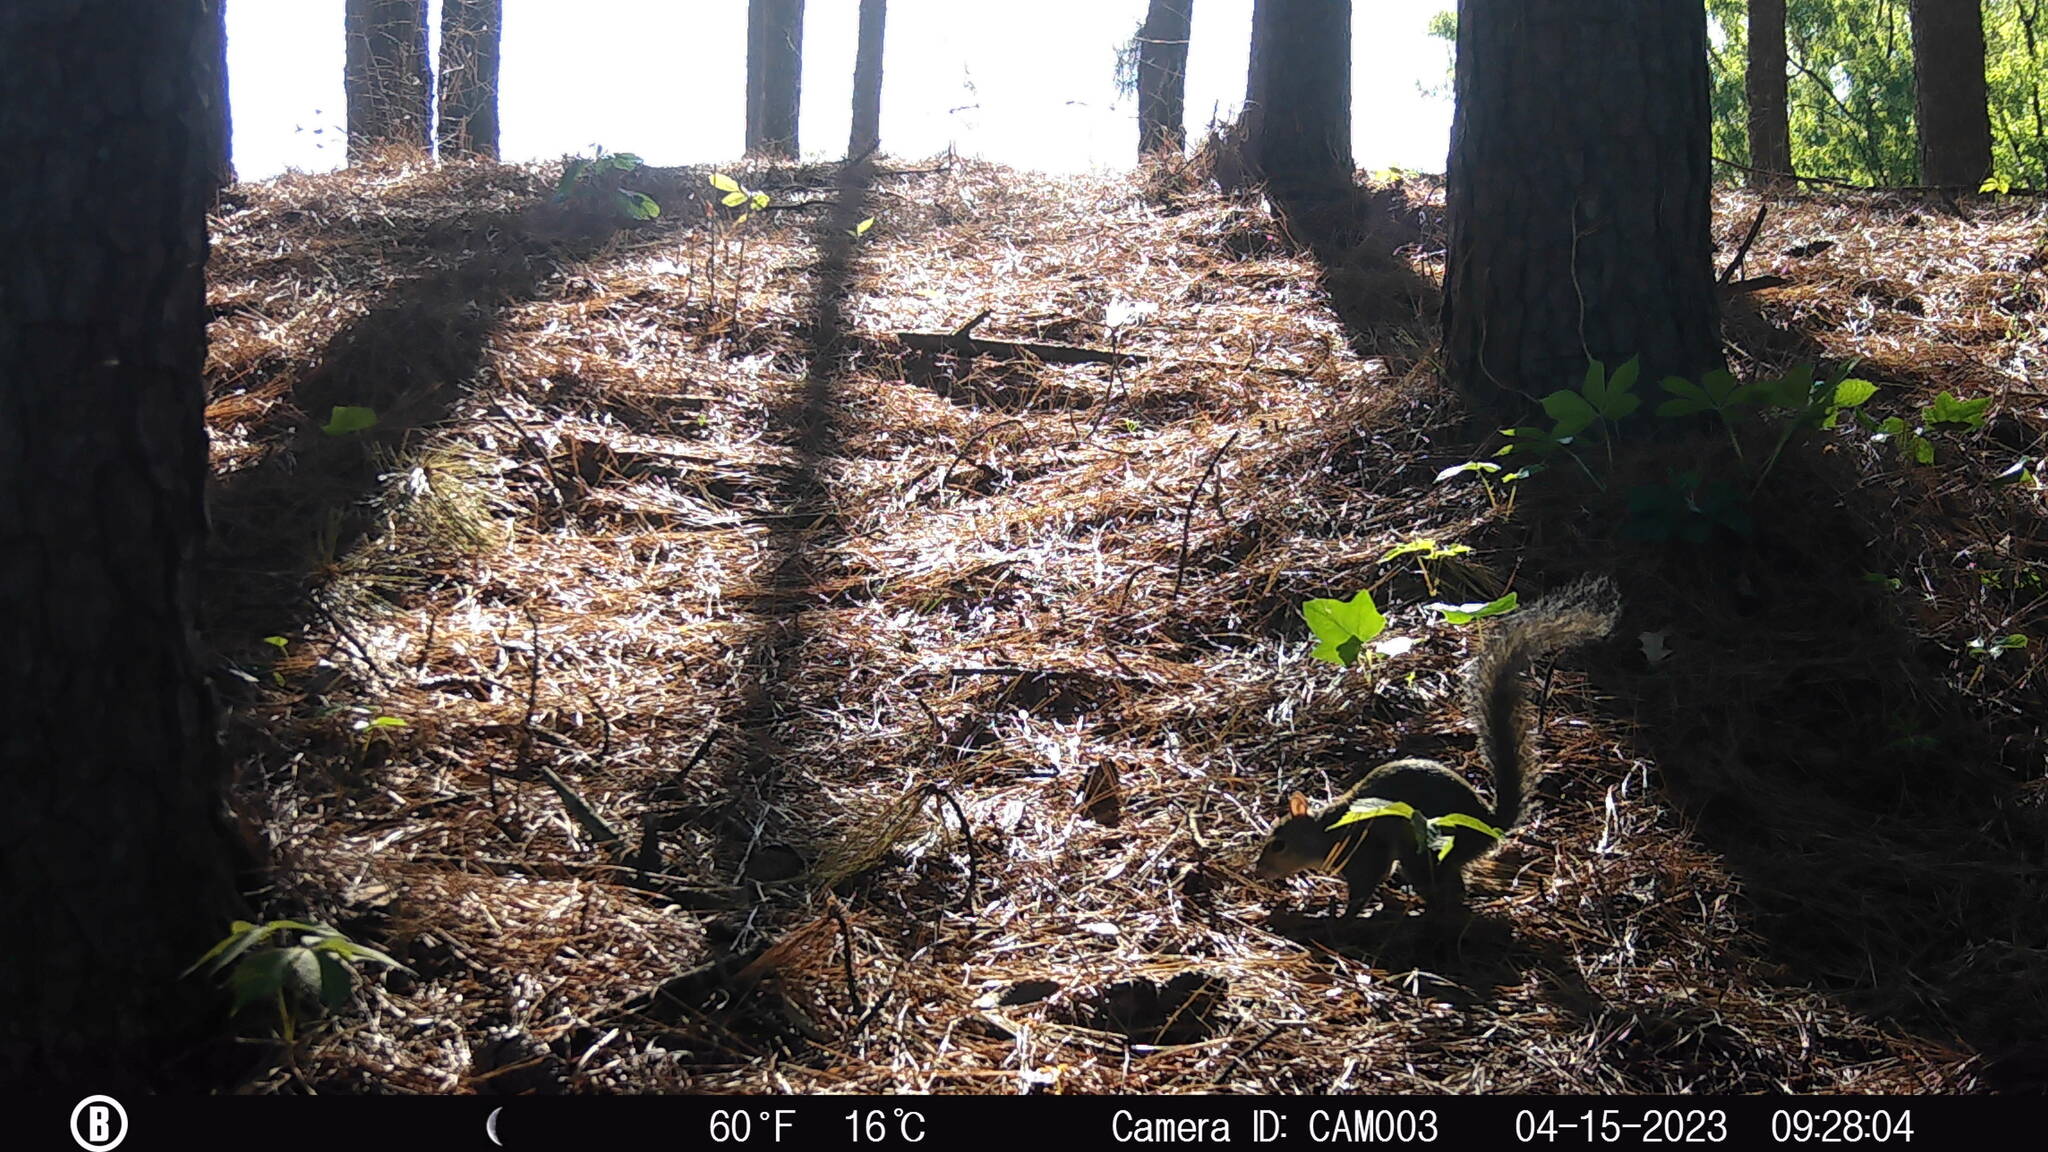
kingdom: Animalia
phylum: Chordata
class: Mammalia
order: Rodentia
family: Sciuridae
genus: Sciurus
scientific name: Sciurus carolinensis
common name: Eastern gray squirrel
